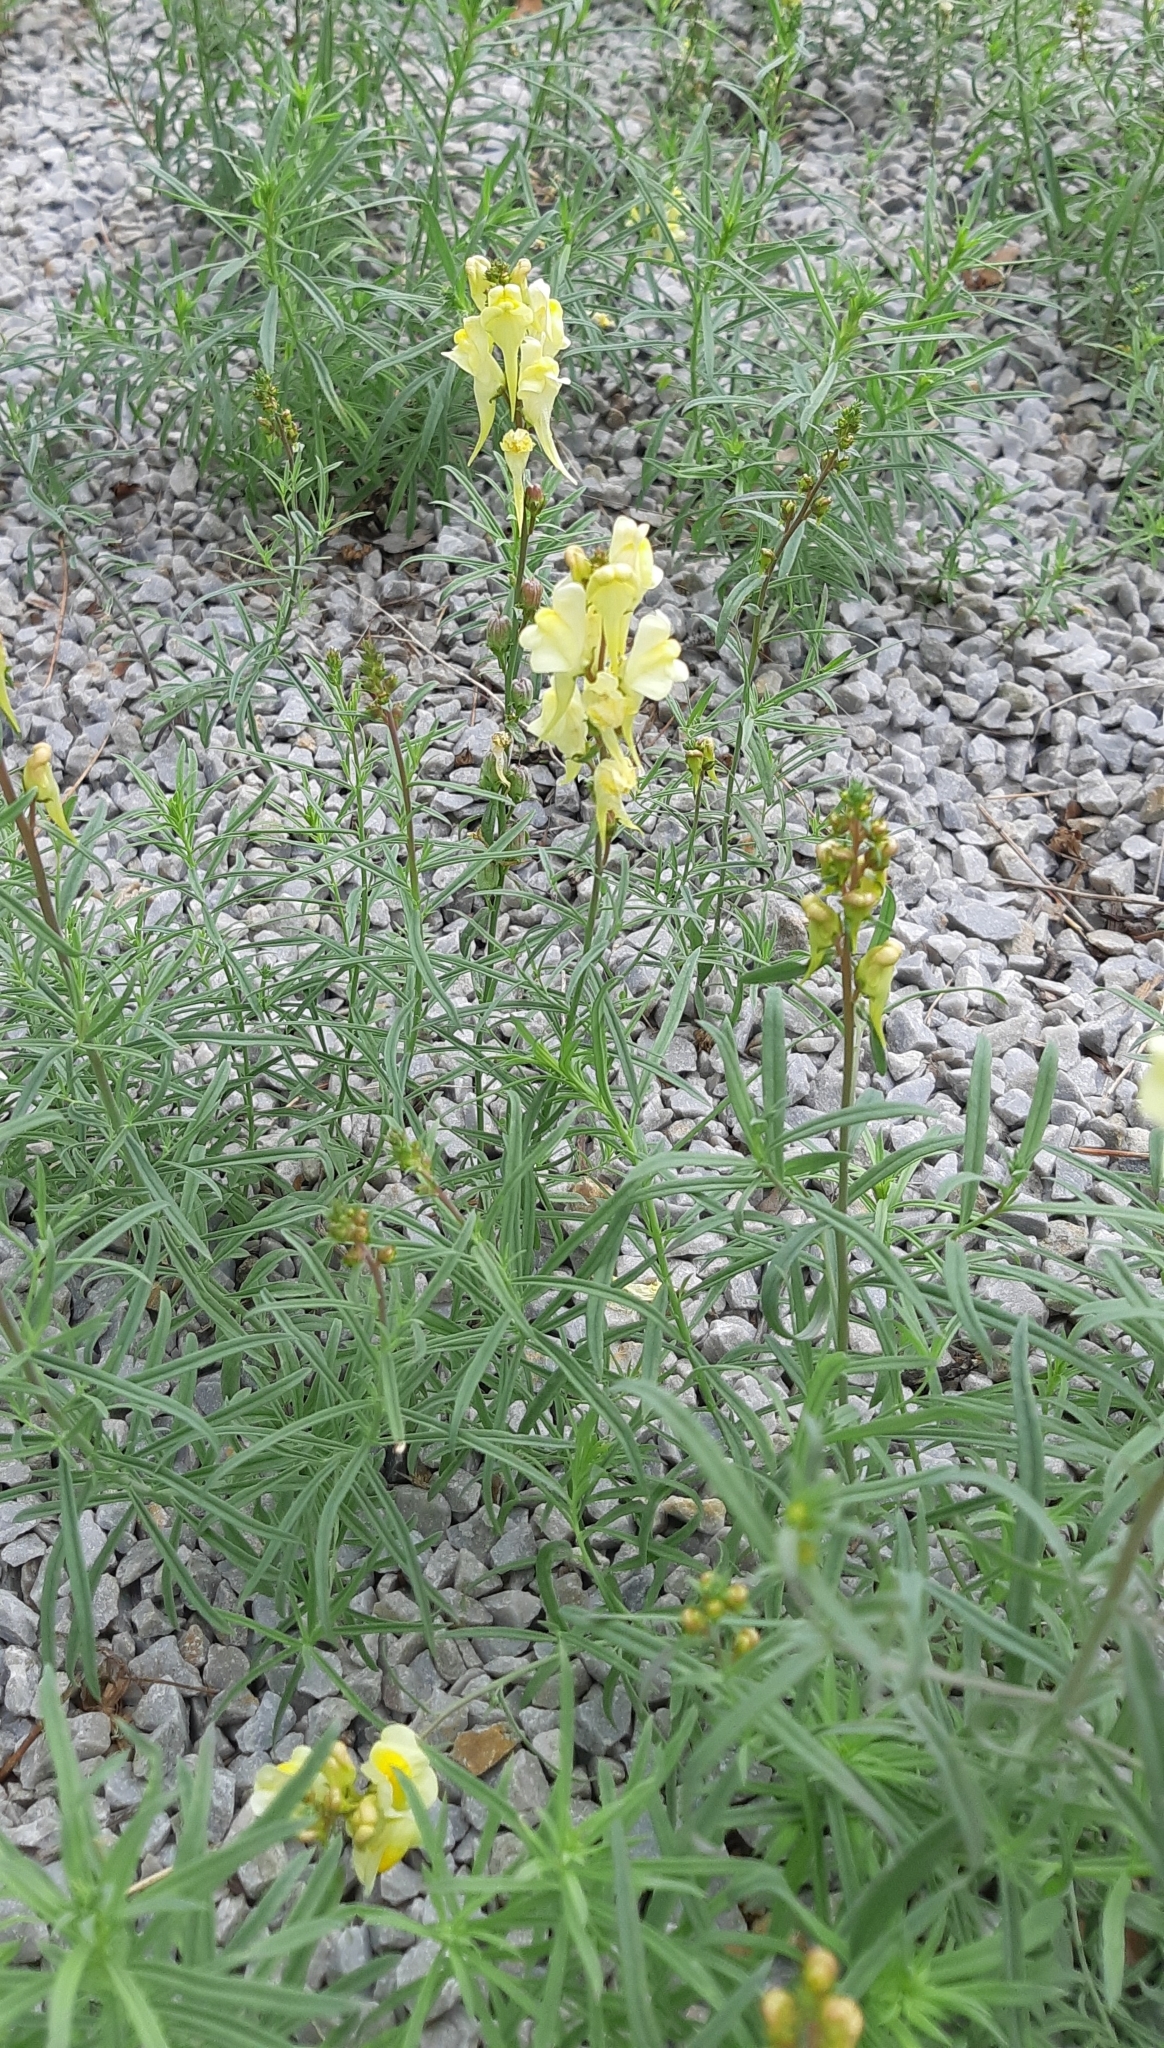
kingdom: Plantae
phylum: Tracheophyta
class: Magnoliopsida
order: Lamiales
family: Plantaginaceae
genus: Linaria
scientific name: Linaria vulgaris
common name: Butter and eggs
